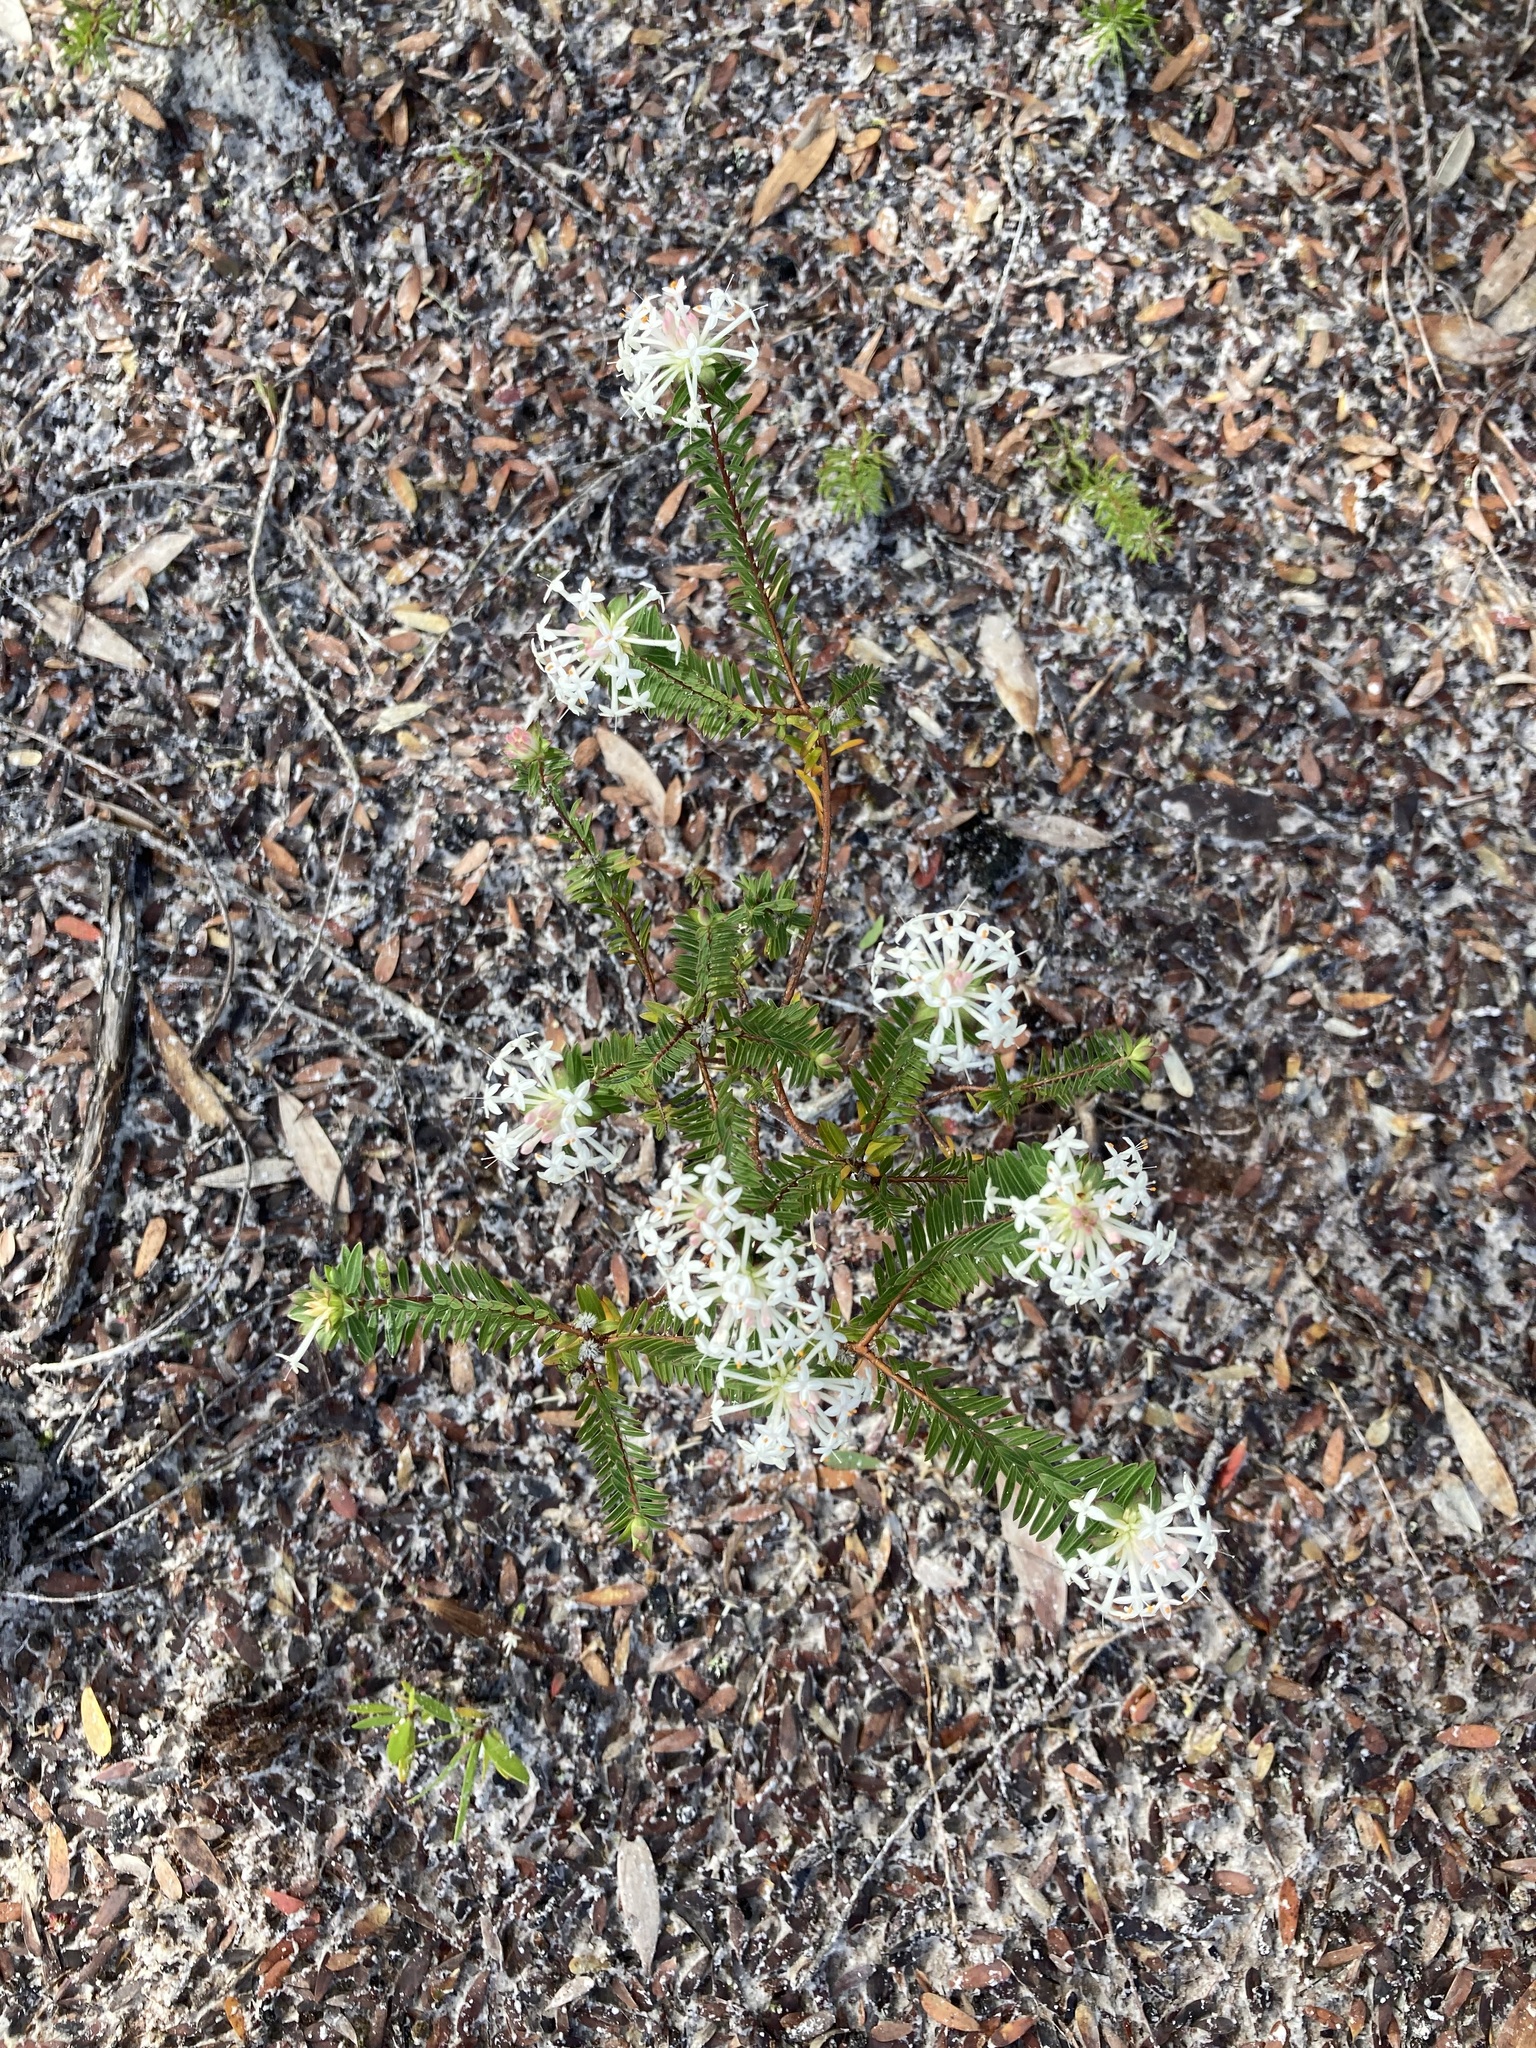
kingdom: Plantae
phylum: Tracheophyta
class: Magnoliopsida
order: Malvales
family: Thymelaeaceae
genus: Pimelea
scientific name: Pimelea linifolia
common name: Queen-of-the-bush
